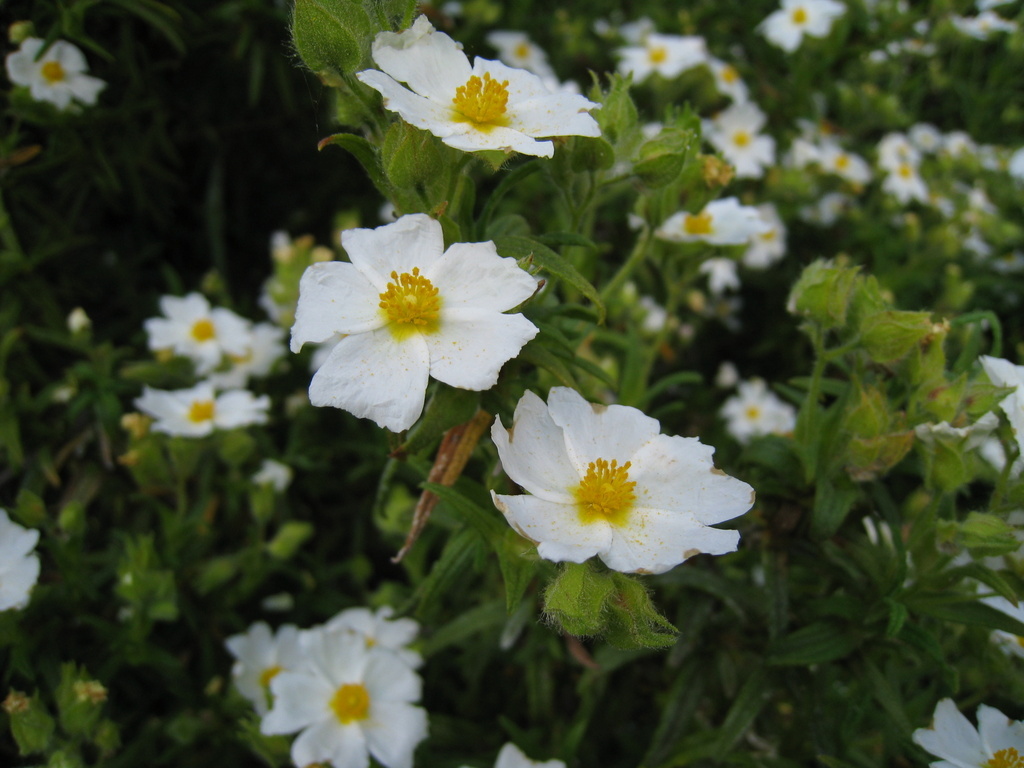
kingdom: Plantae
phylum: Tracheophyta
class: Magnoliopsida
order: Malvales
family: Cistaceae
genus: Cistus
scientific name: Cistus monspeliensis
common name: Montpelier cistus
